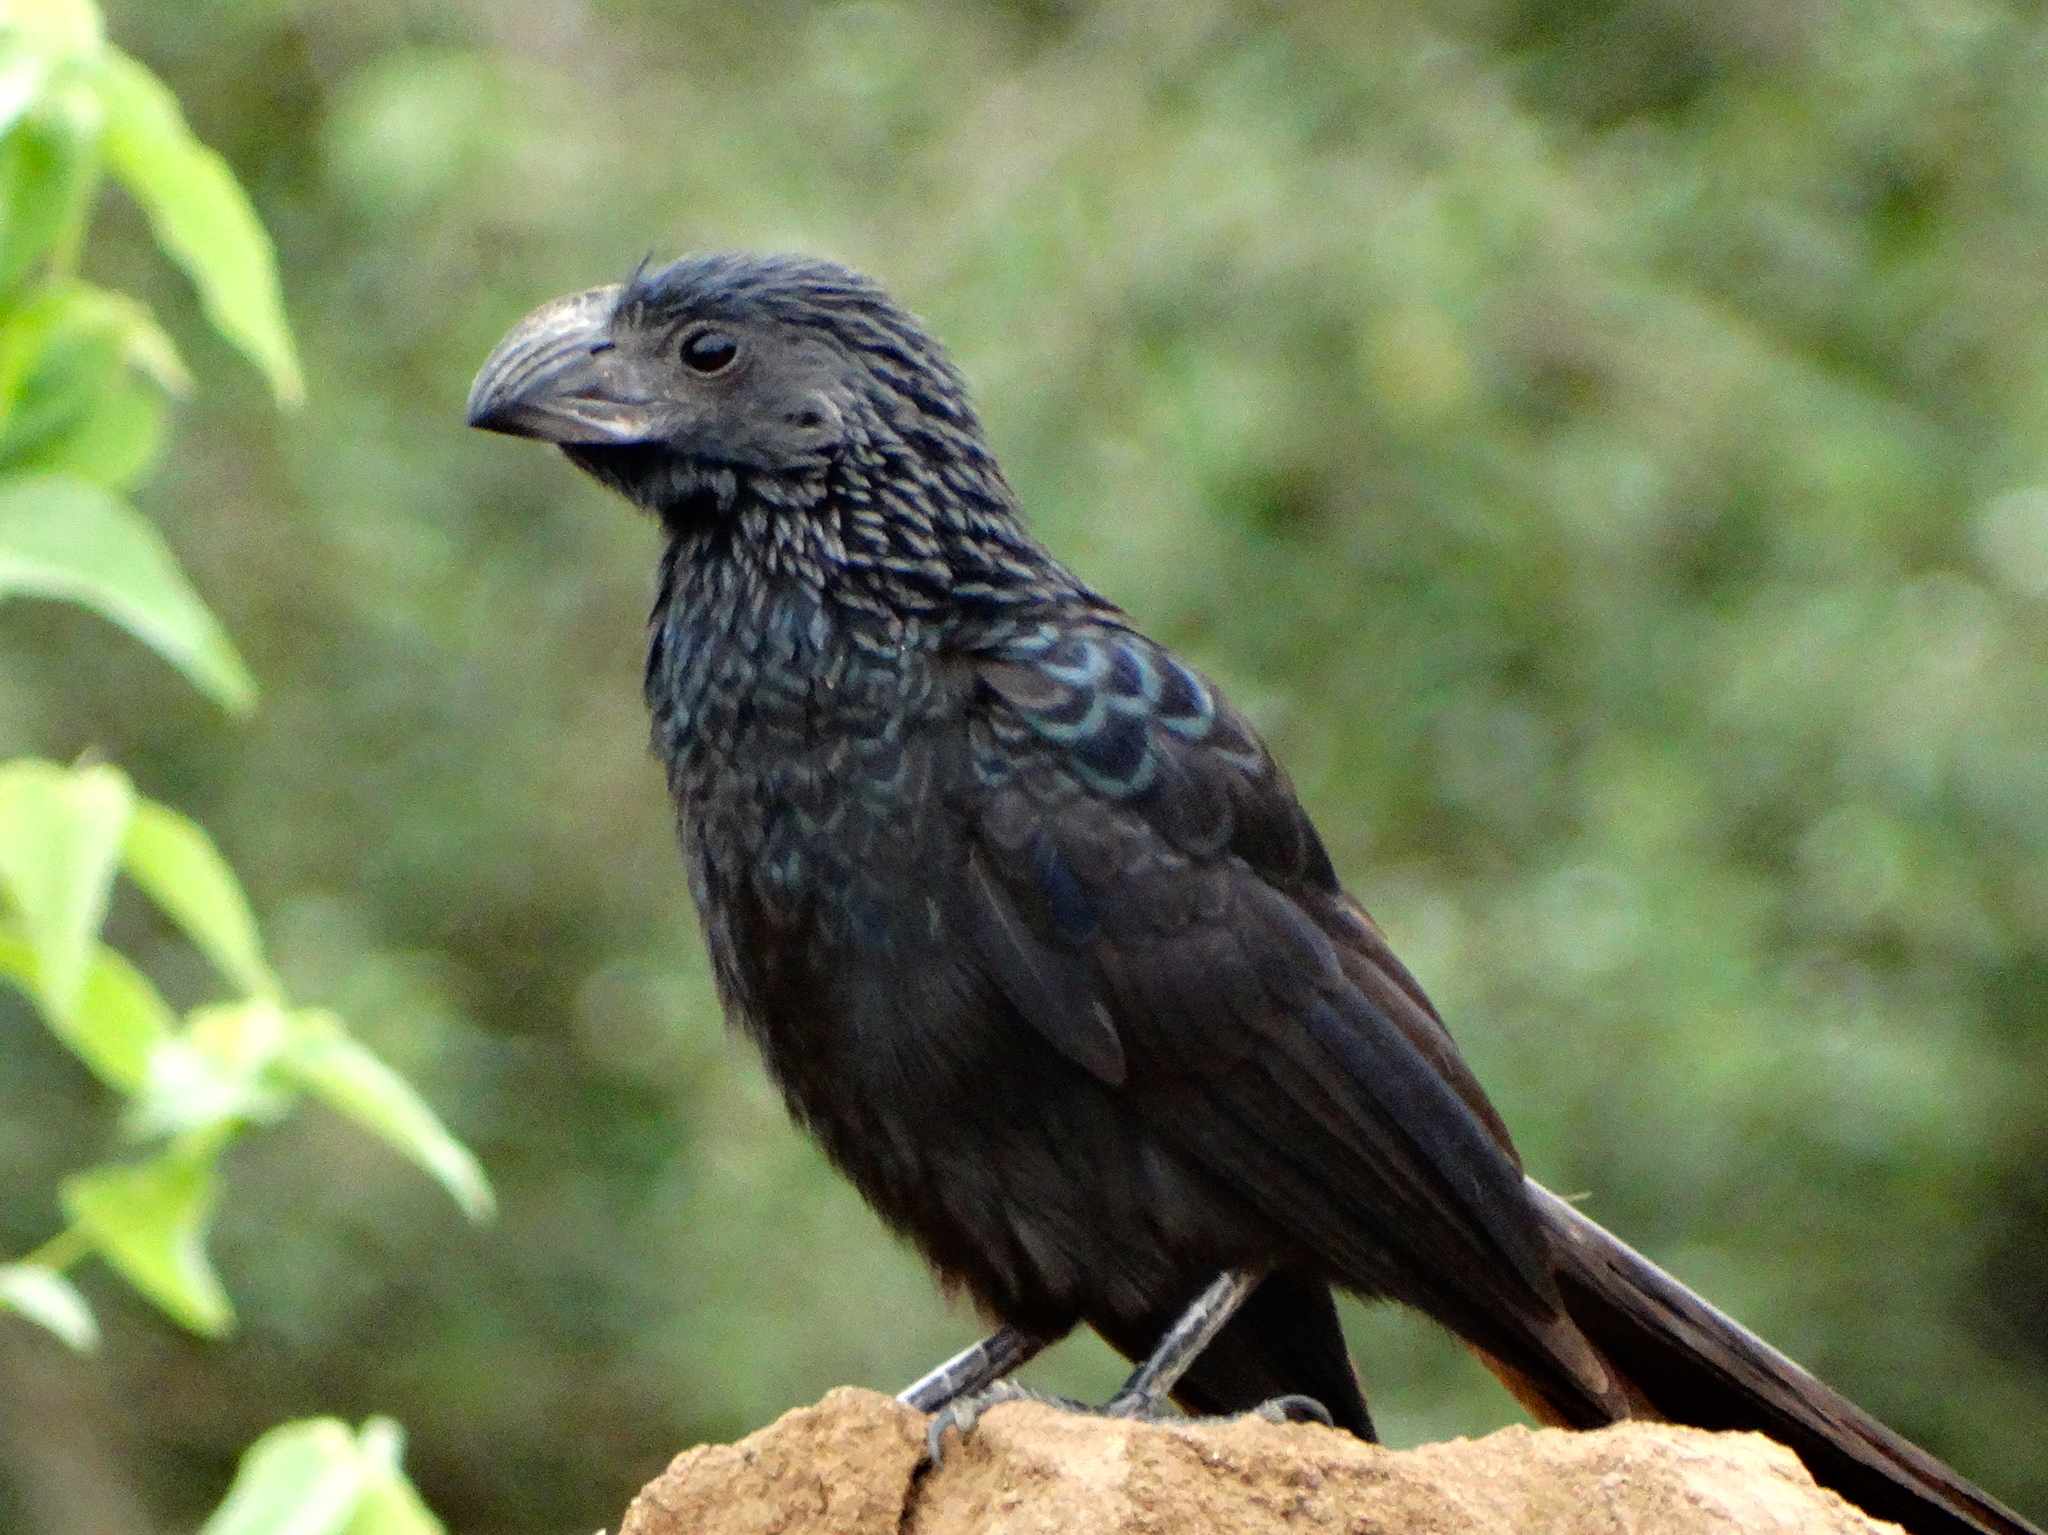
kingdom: Animalia
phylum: Chordata
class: Aves
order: Cuculiformes
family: Cuculidae
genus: Crotophaga
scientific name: Crotophaga sulcirostris
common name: Groove-billed ani
